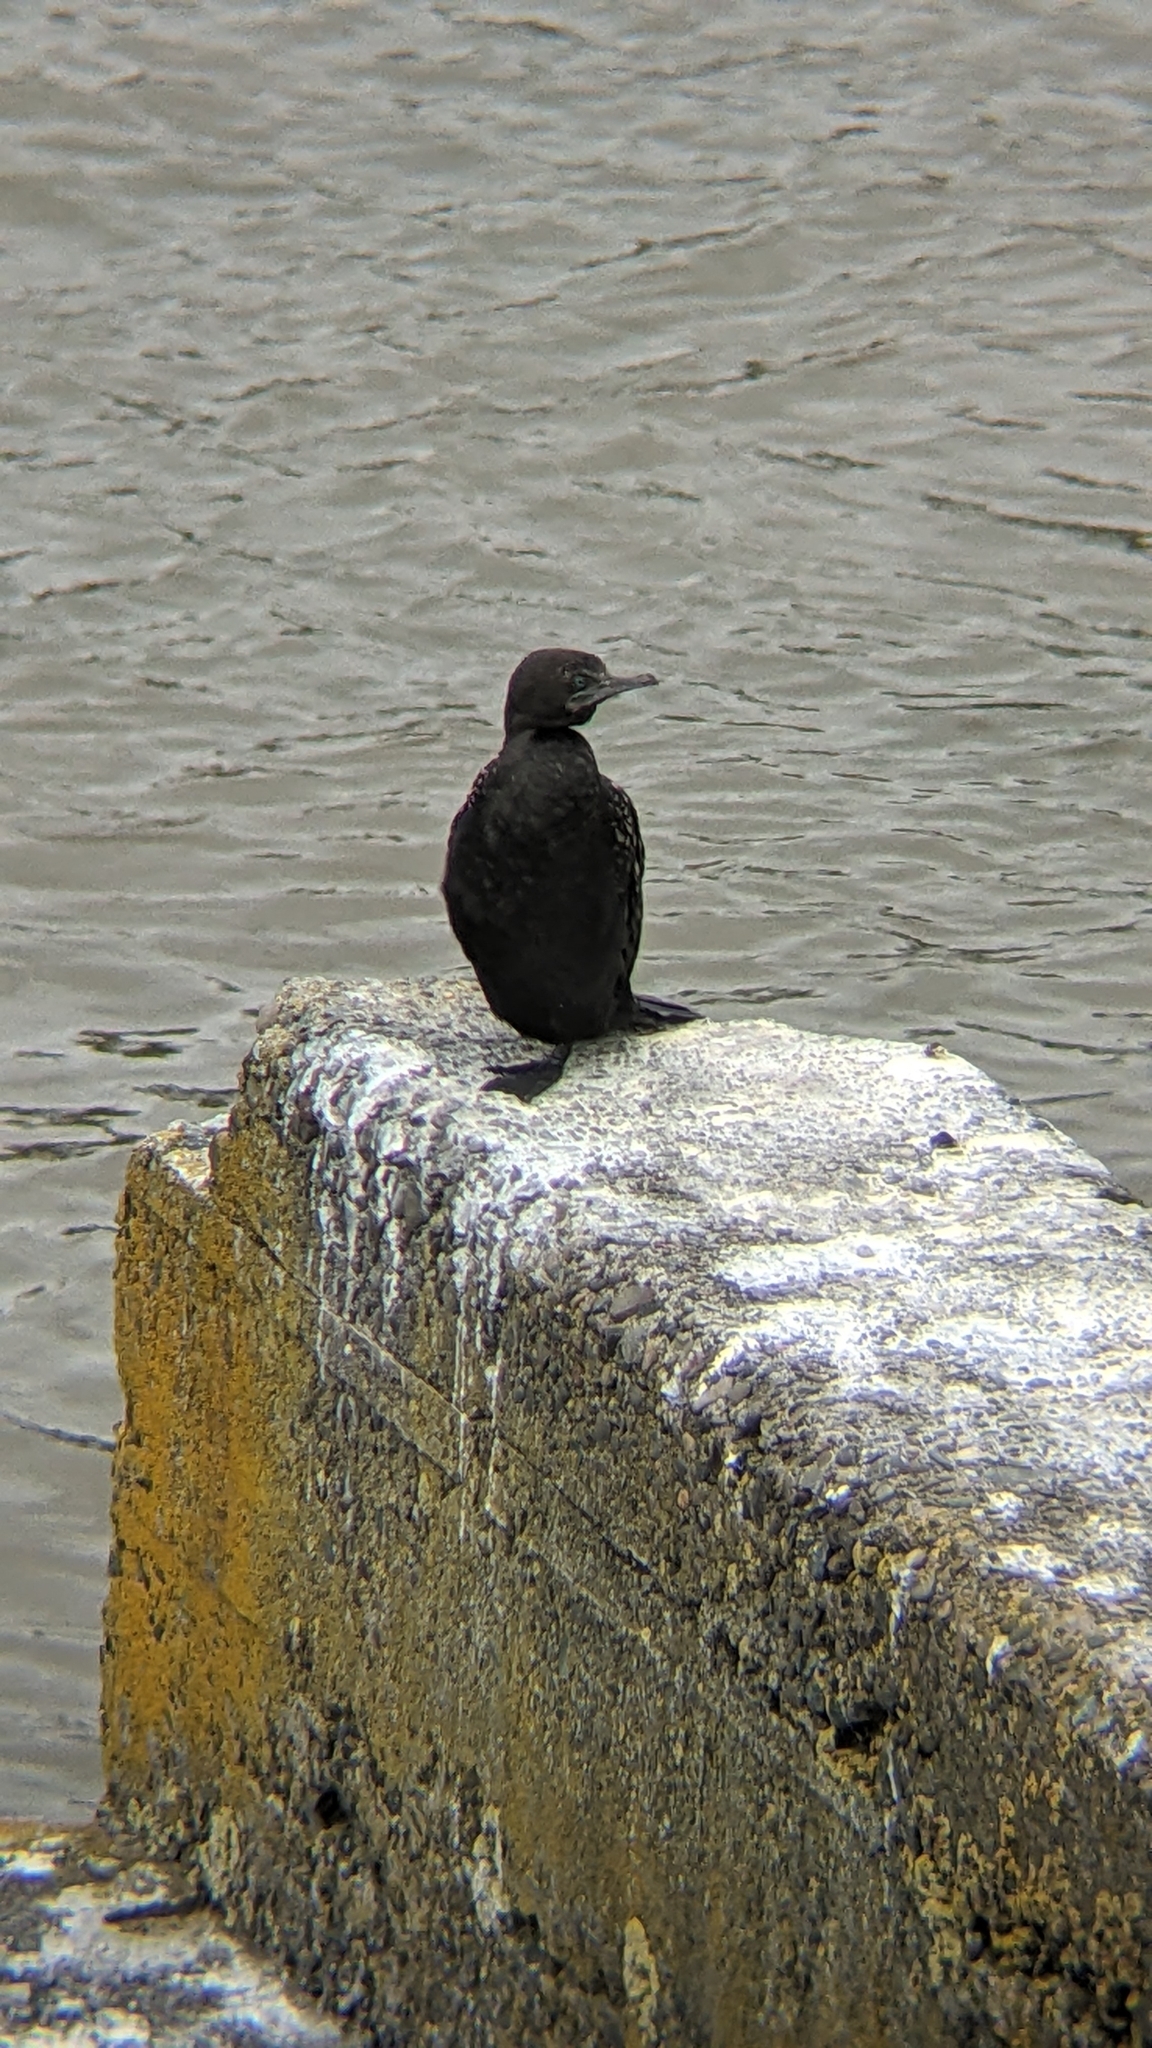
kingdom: Animalia
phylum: Chordata
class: Aves
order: Suliformes
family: Phalacrocoracidae
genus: Phalacrocorax
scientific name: Phalacrocorax sulcirostris
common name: Little black cormorant
